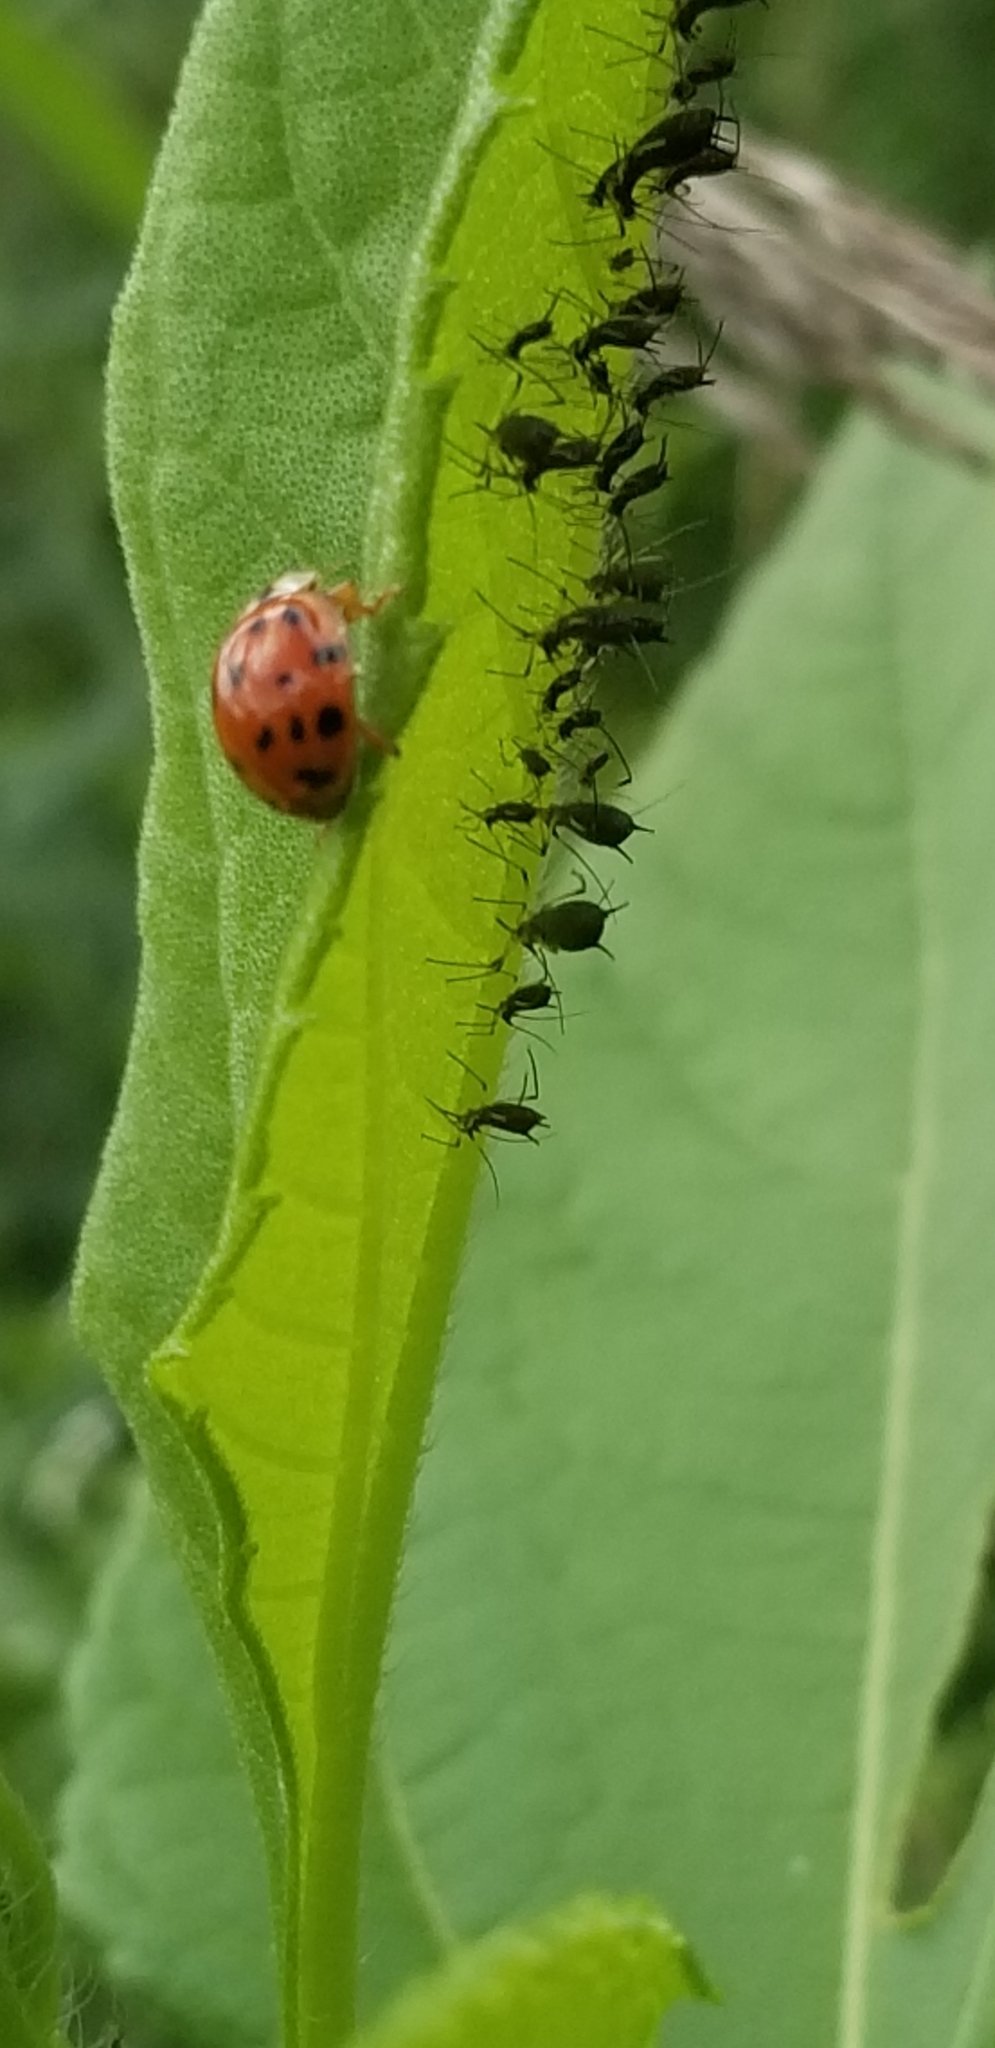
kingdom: Animalia
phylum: Arthropoda
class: Insecta
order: Coleoptera
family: Coccinellidae
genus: Harmonia
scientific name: Harmonia axyridis
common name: Harlequin ladybird
